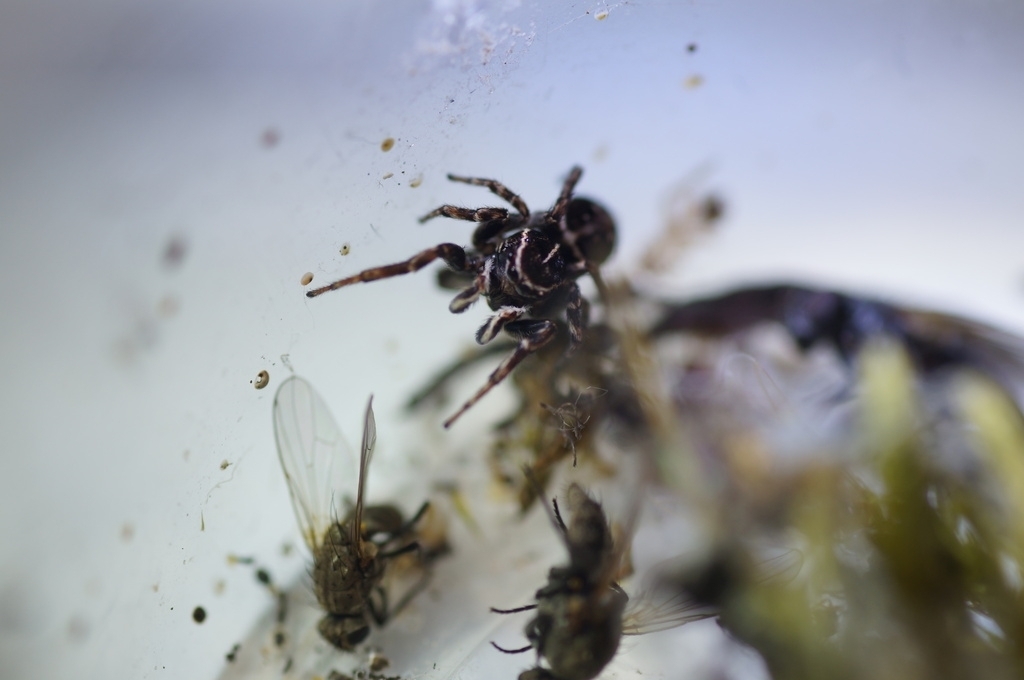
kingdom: Animalia
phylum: Arthropoda
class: Arachnida
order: Araneae
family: Salticidae
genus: Attulus
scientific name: Attulus dzieduszyckii
